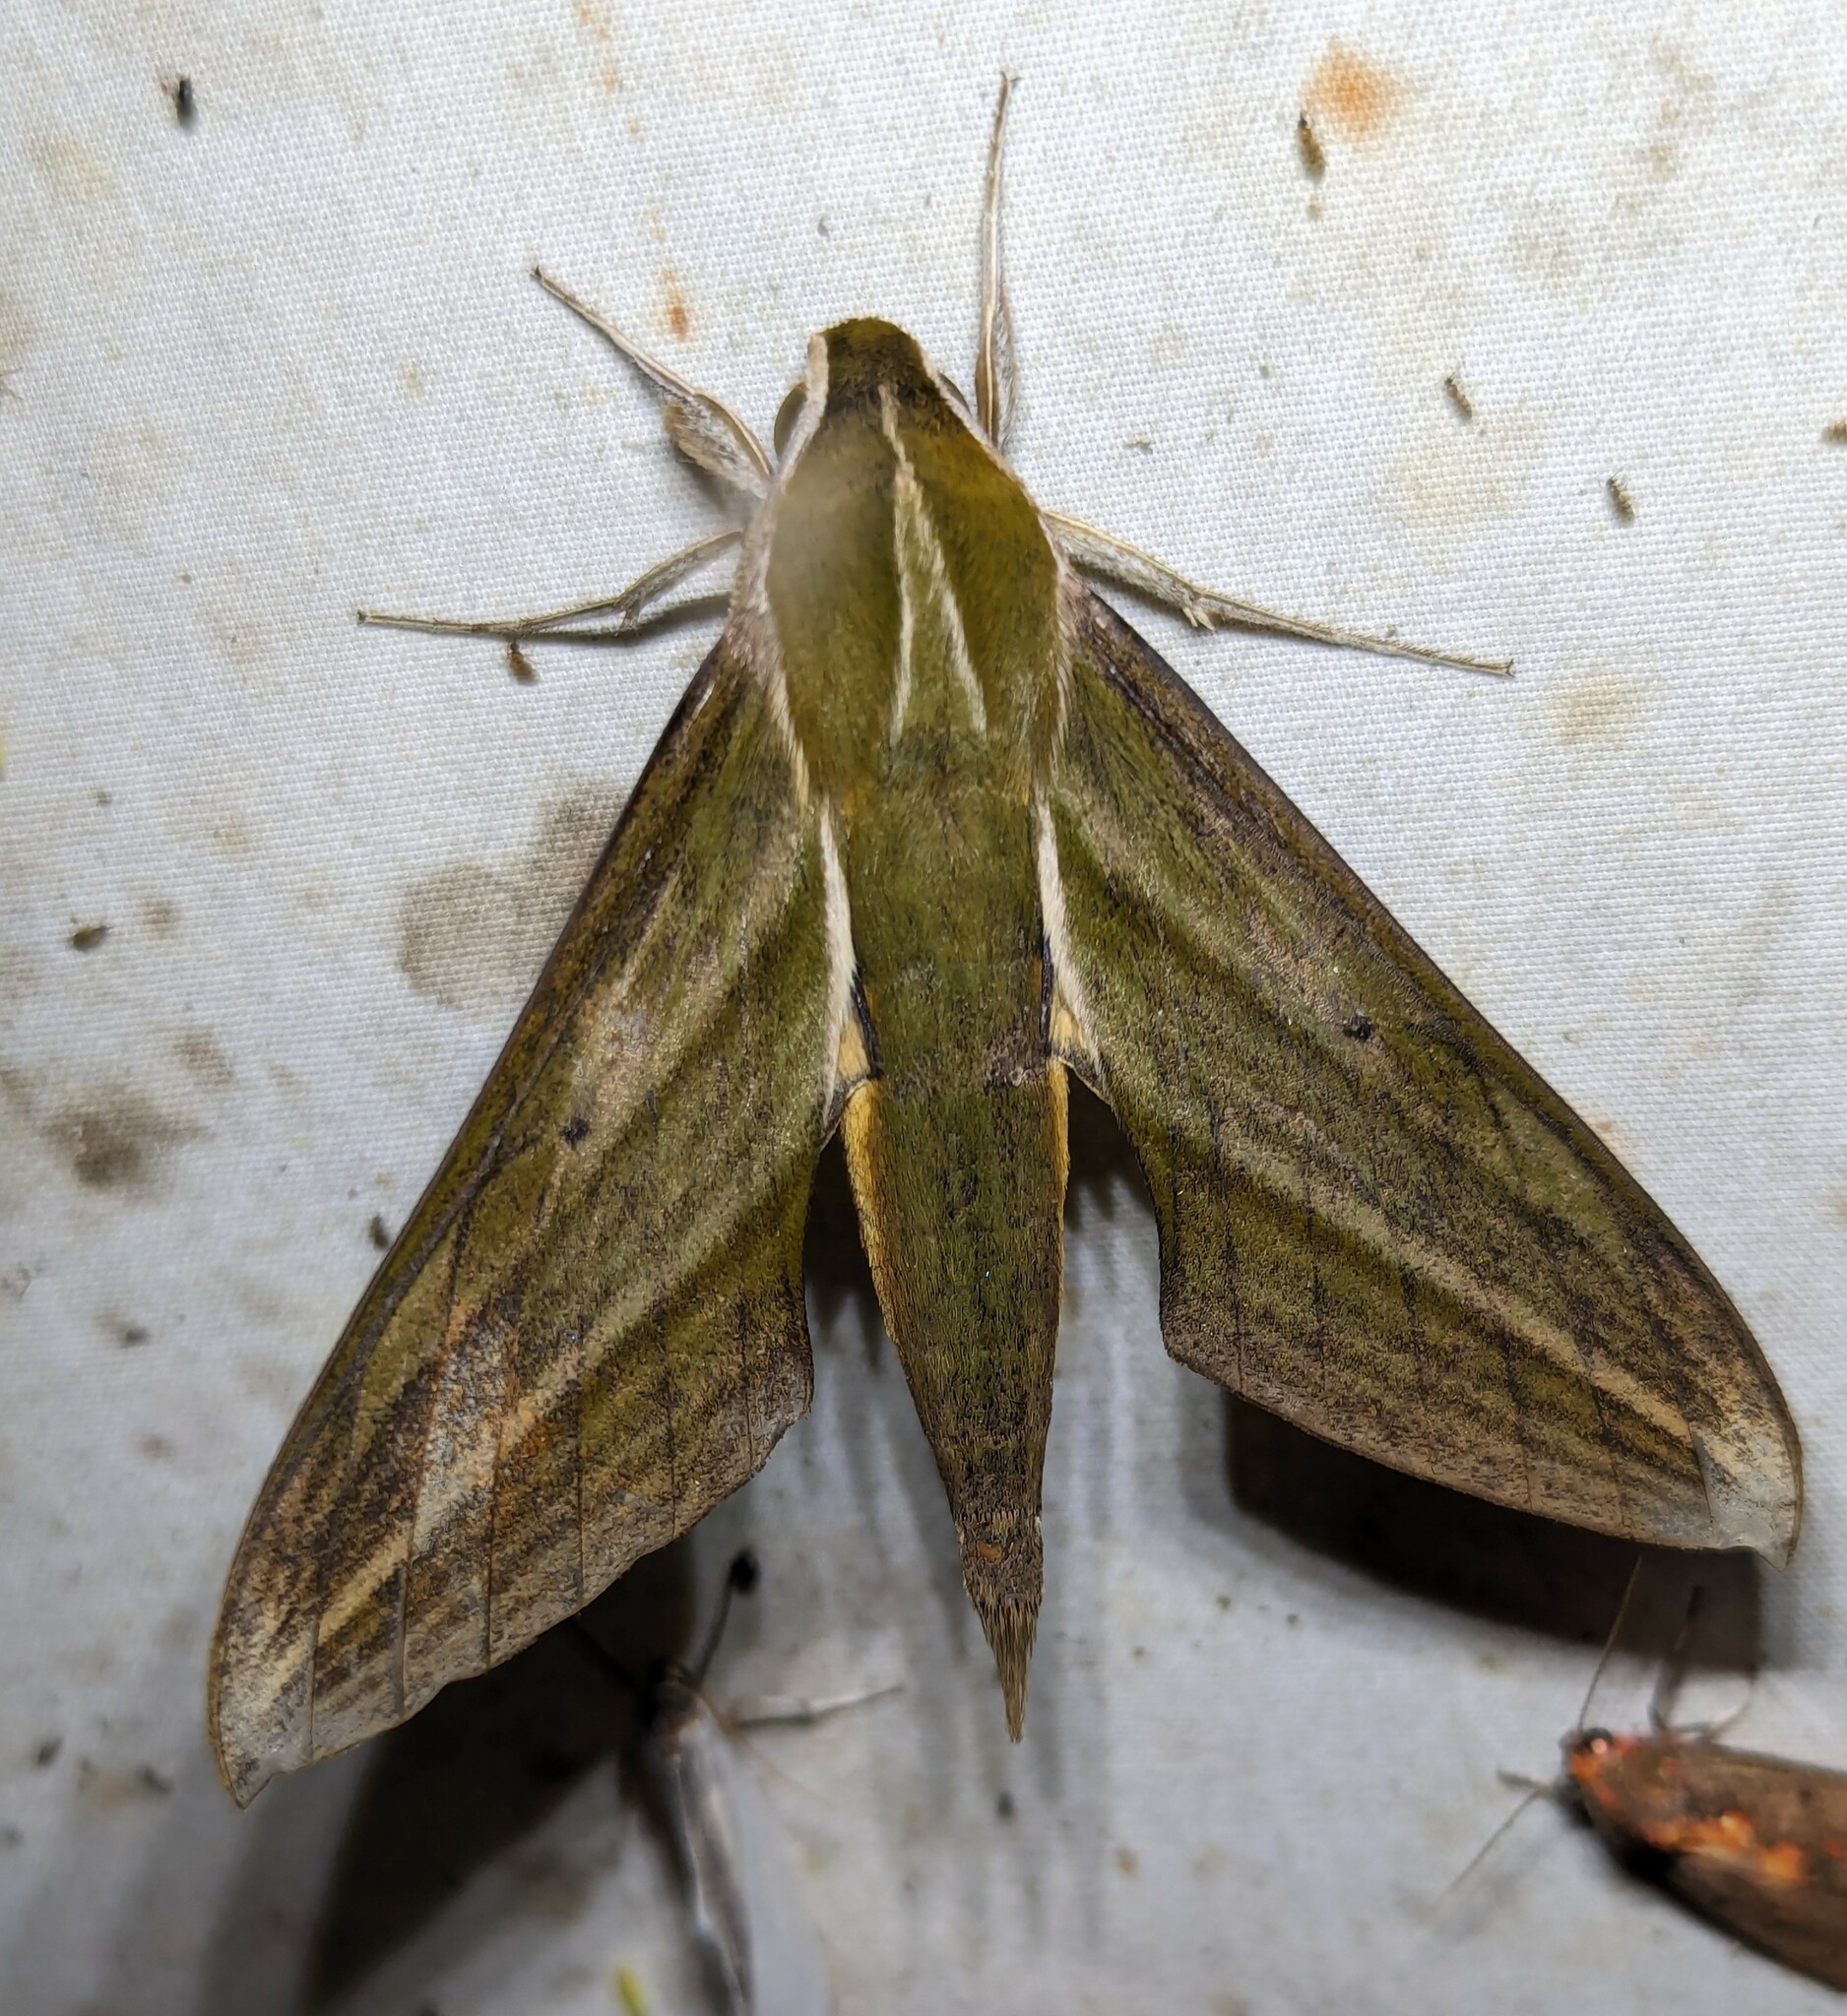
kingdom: Animalia
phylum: Arthropoda
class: Insecta
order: Lepidoptera
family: Sphingidae
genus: Xylophanes
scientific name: Xylophanes crotonis
